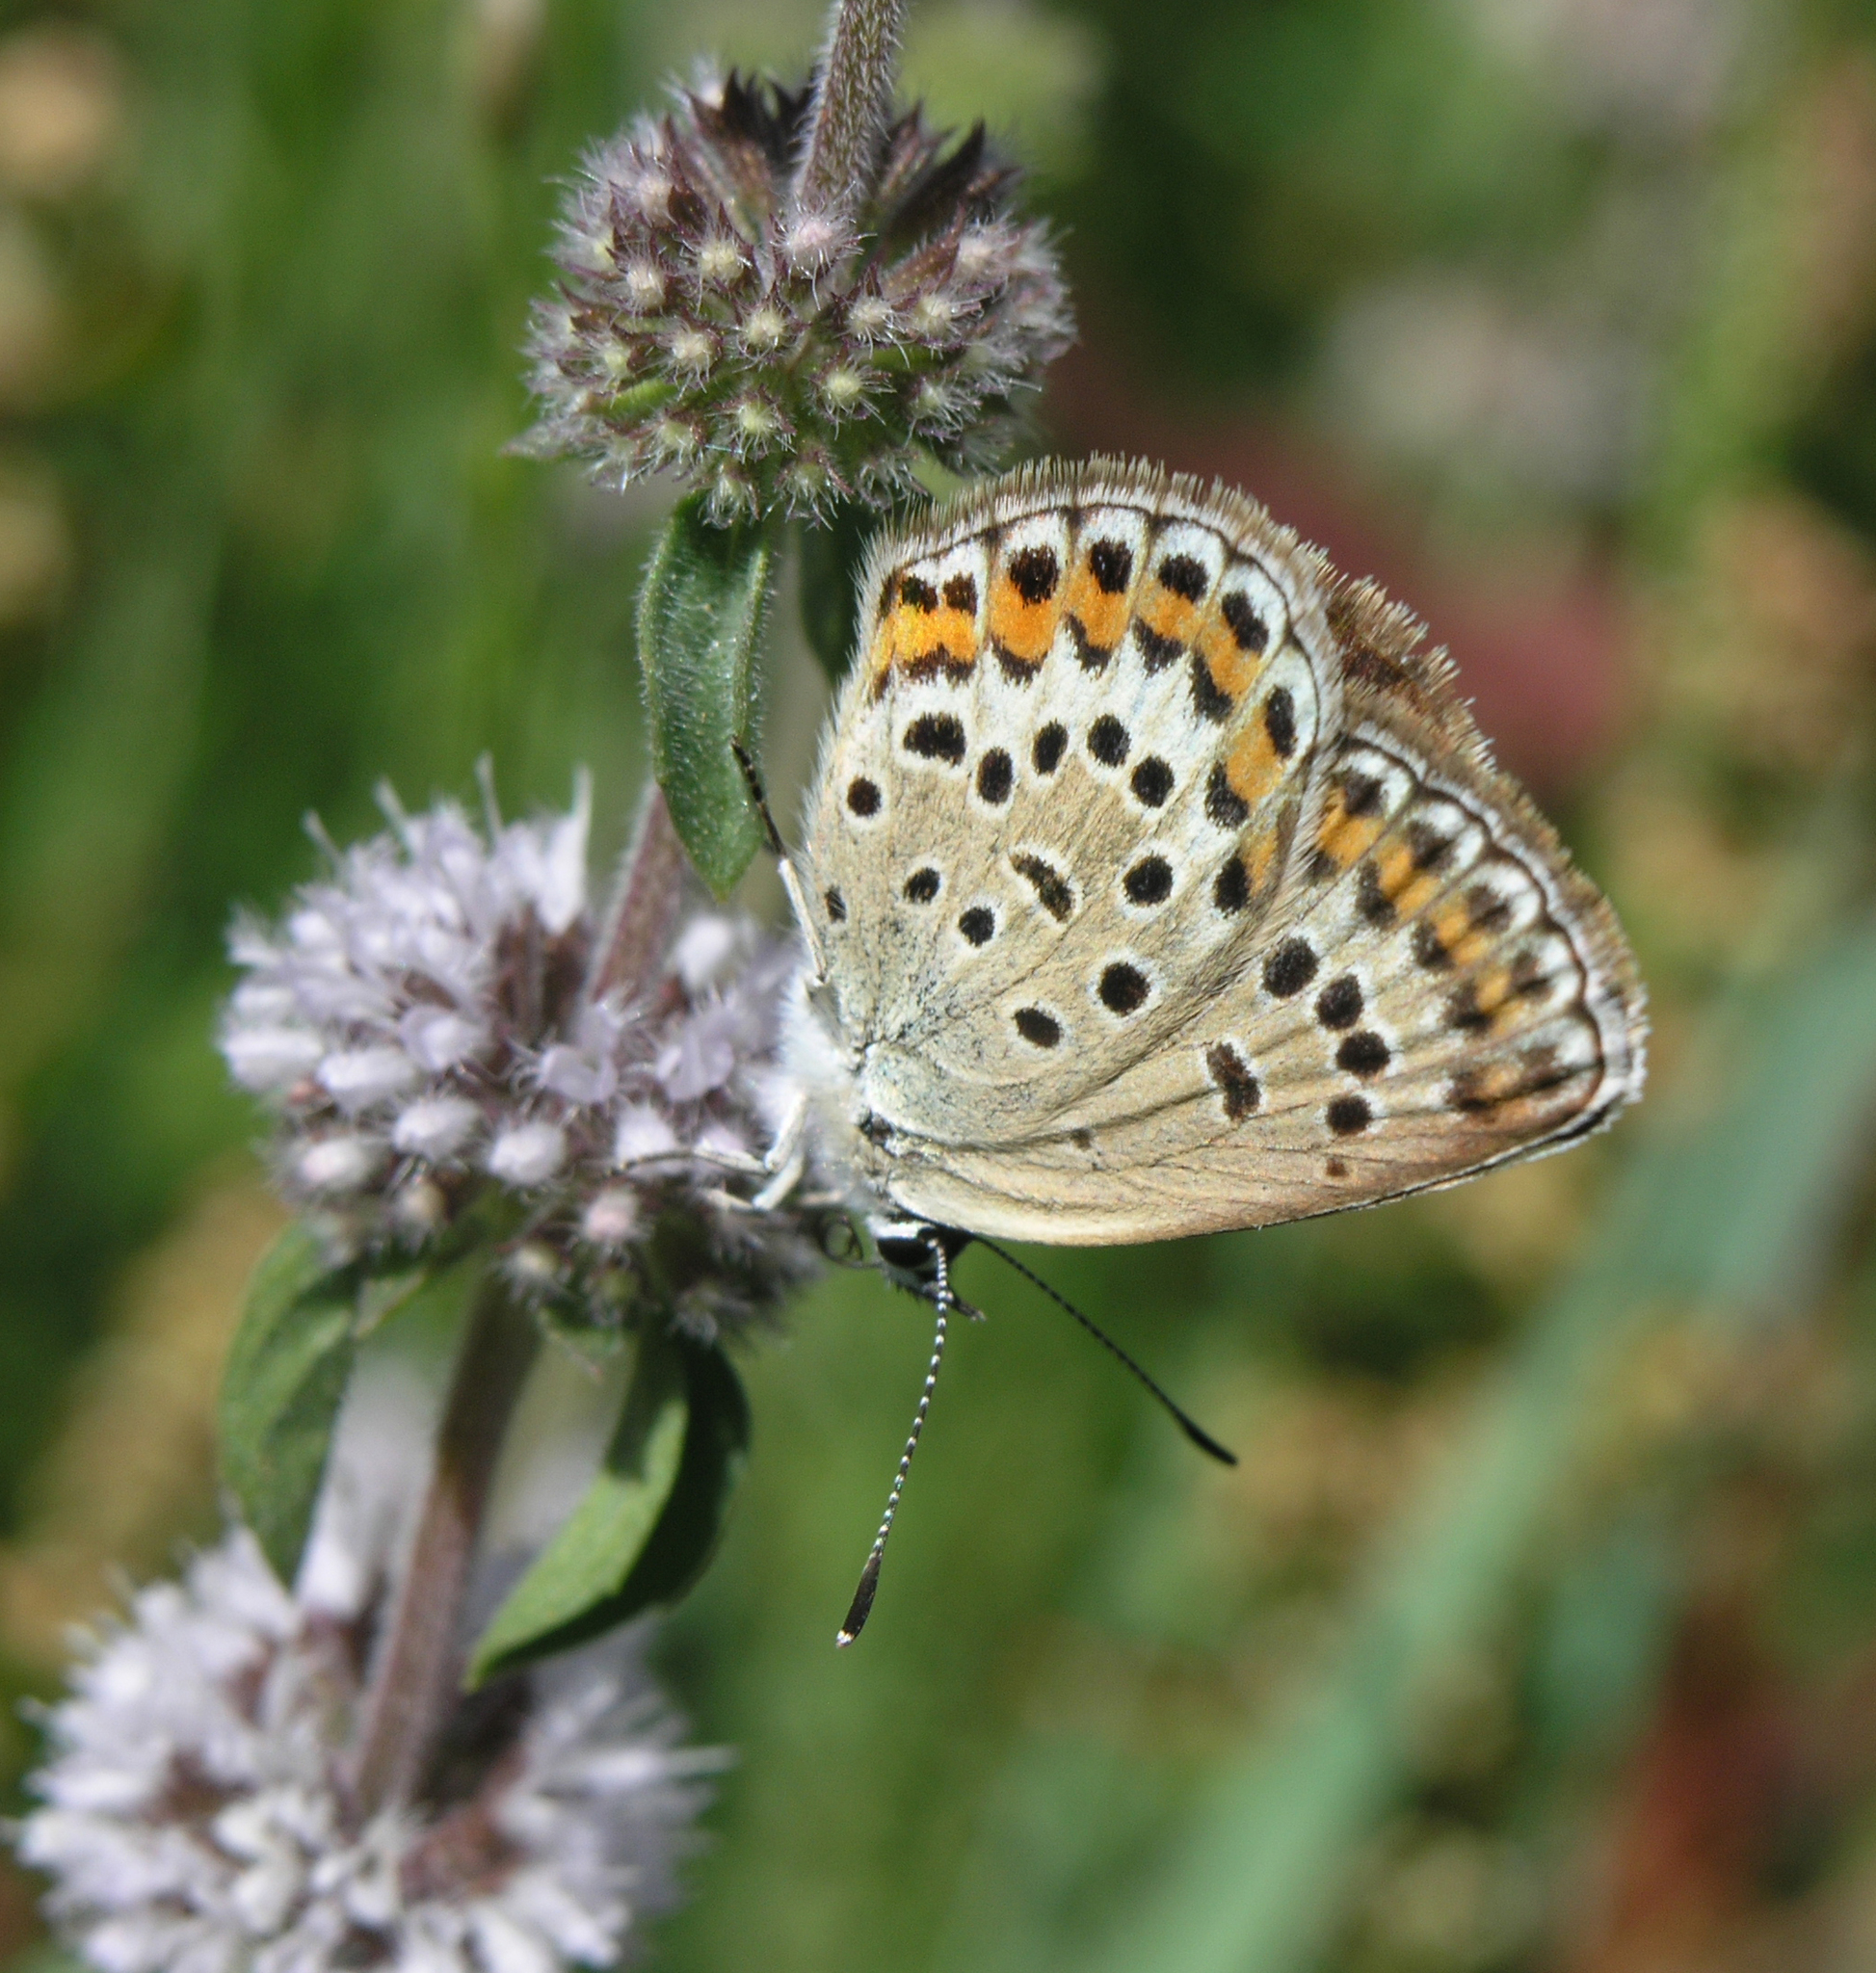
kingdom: Animalia
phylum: Arthropoda
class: Insecta
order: Lepidoptera
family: Lycaenidae
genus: Plebejus
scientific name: Plebejus argus
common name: Silver-studded blue
